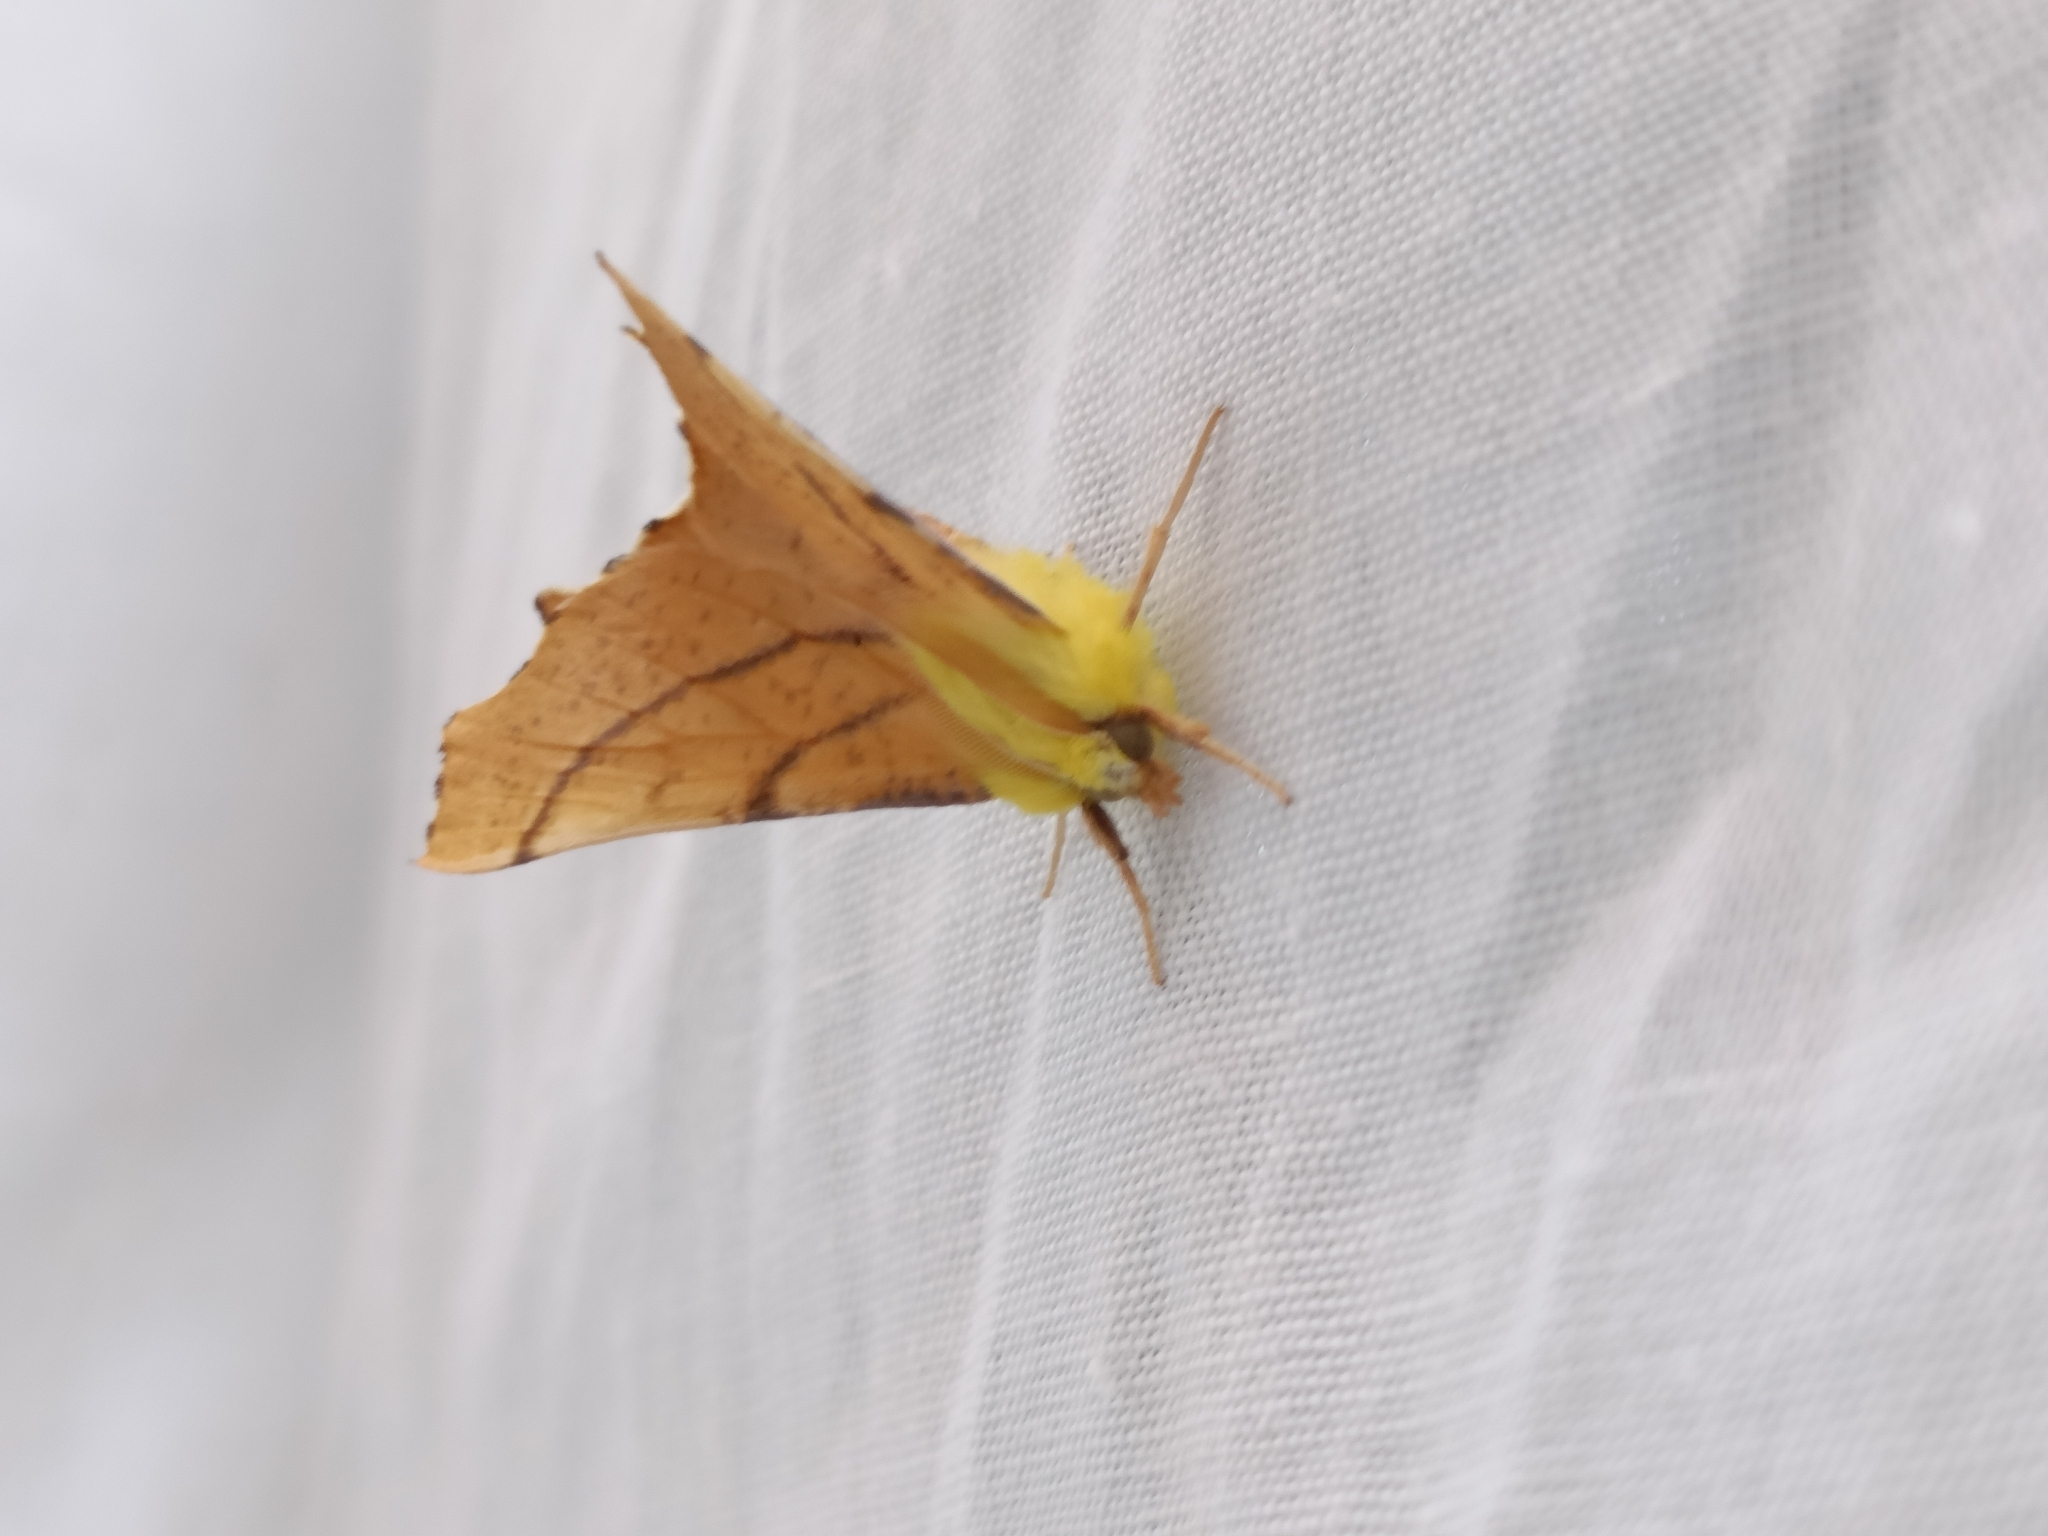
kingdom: Animalia
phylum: Arthropoda
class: Insecta
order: Lepidoptera
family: Geometridae
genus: Ennomos
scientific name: Ennomos alniaria
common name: Canary-shouldered thorn
